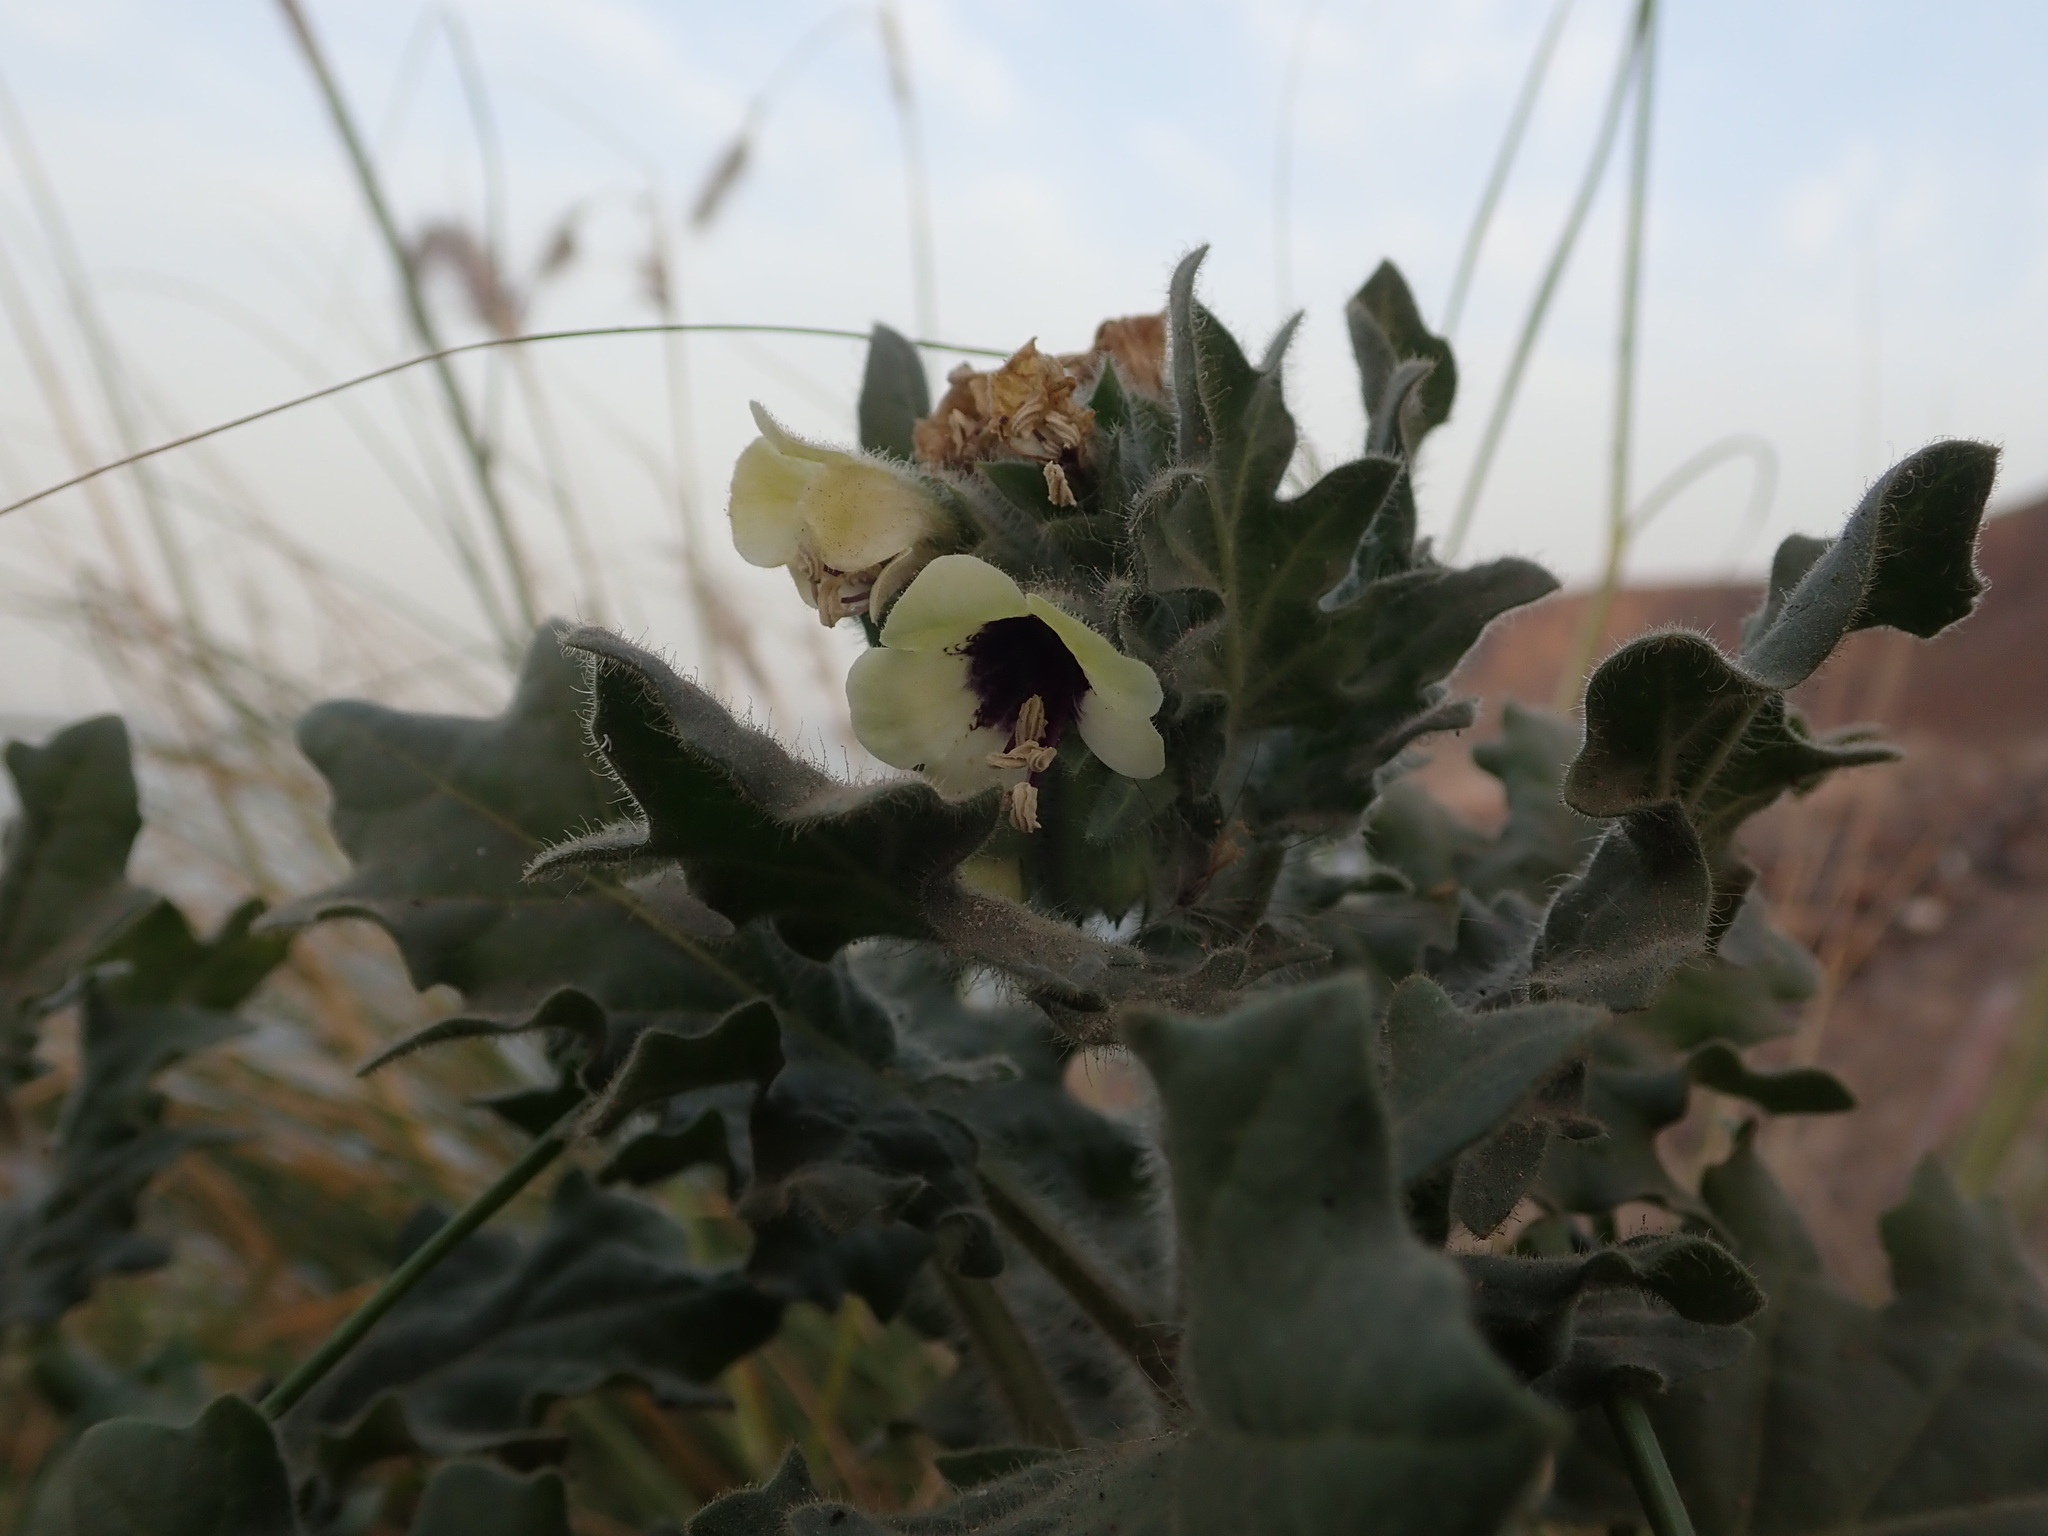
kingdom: Plantae
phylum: Tracheophyta
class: Magnoliopsida
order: Solanales
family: Solanaceae
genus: Hyoscyamus
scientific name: Hyoscyamus albus
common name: White henbane
